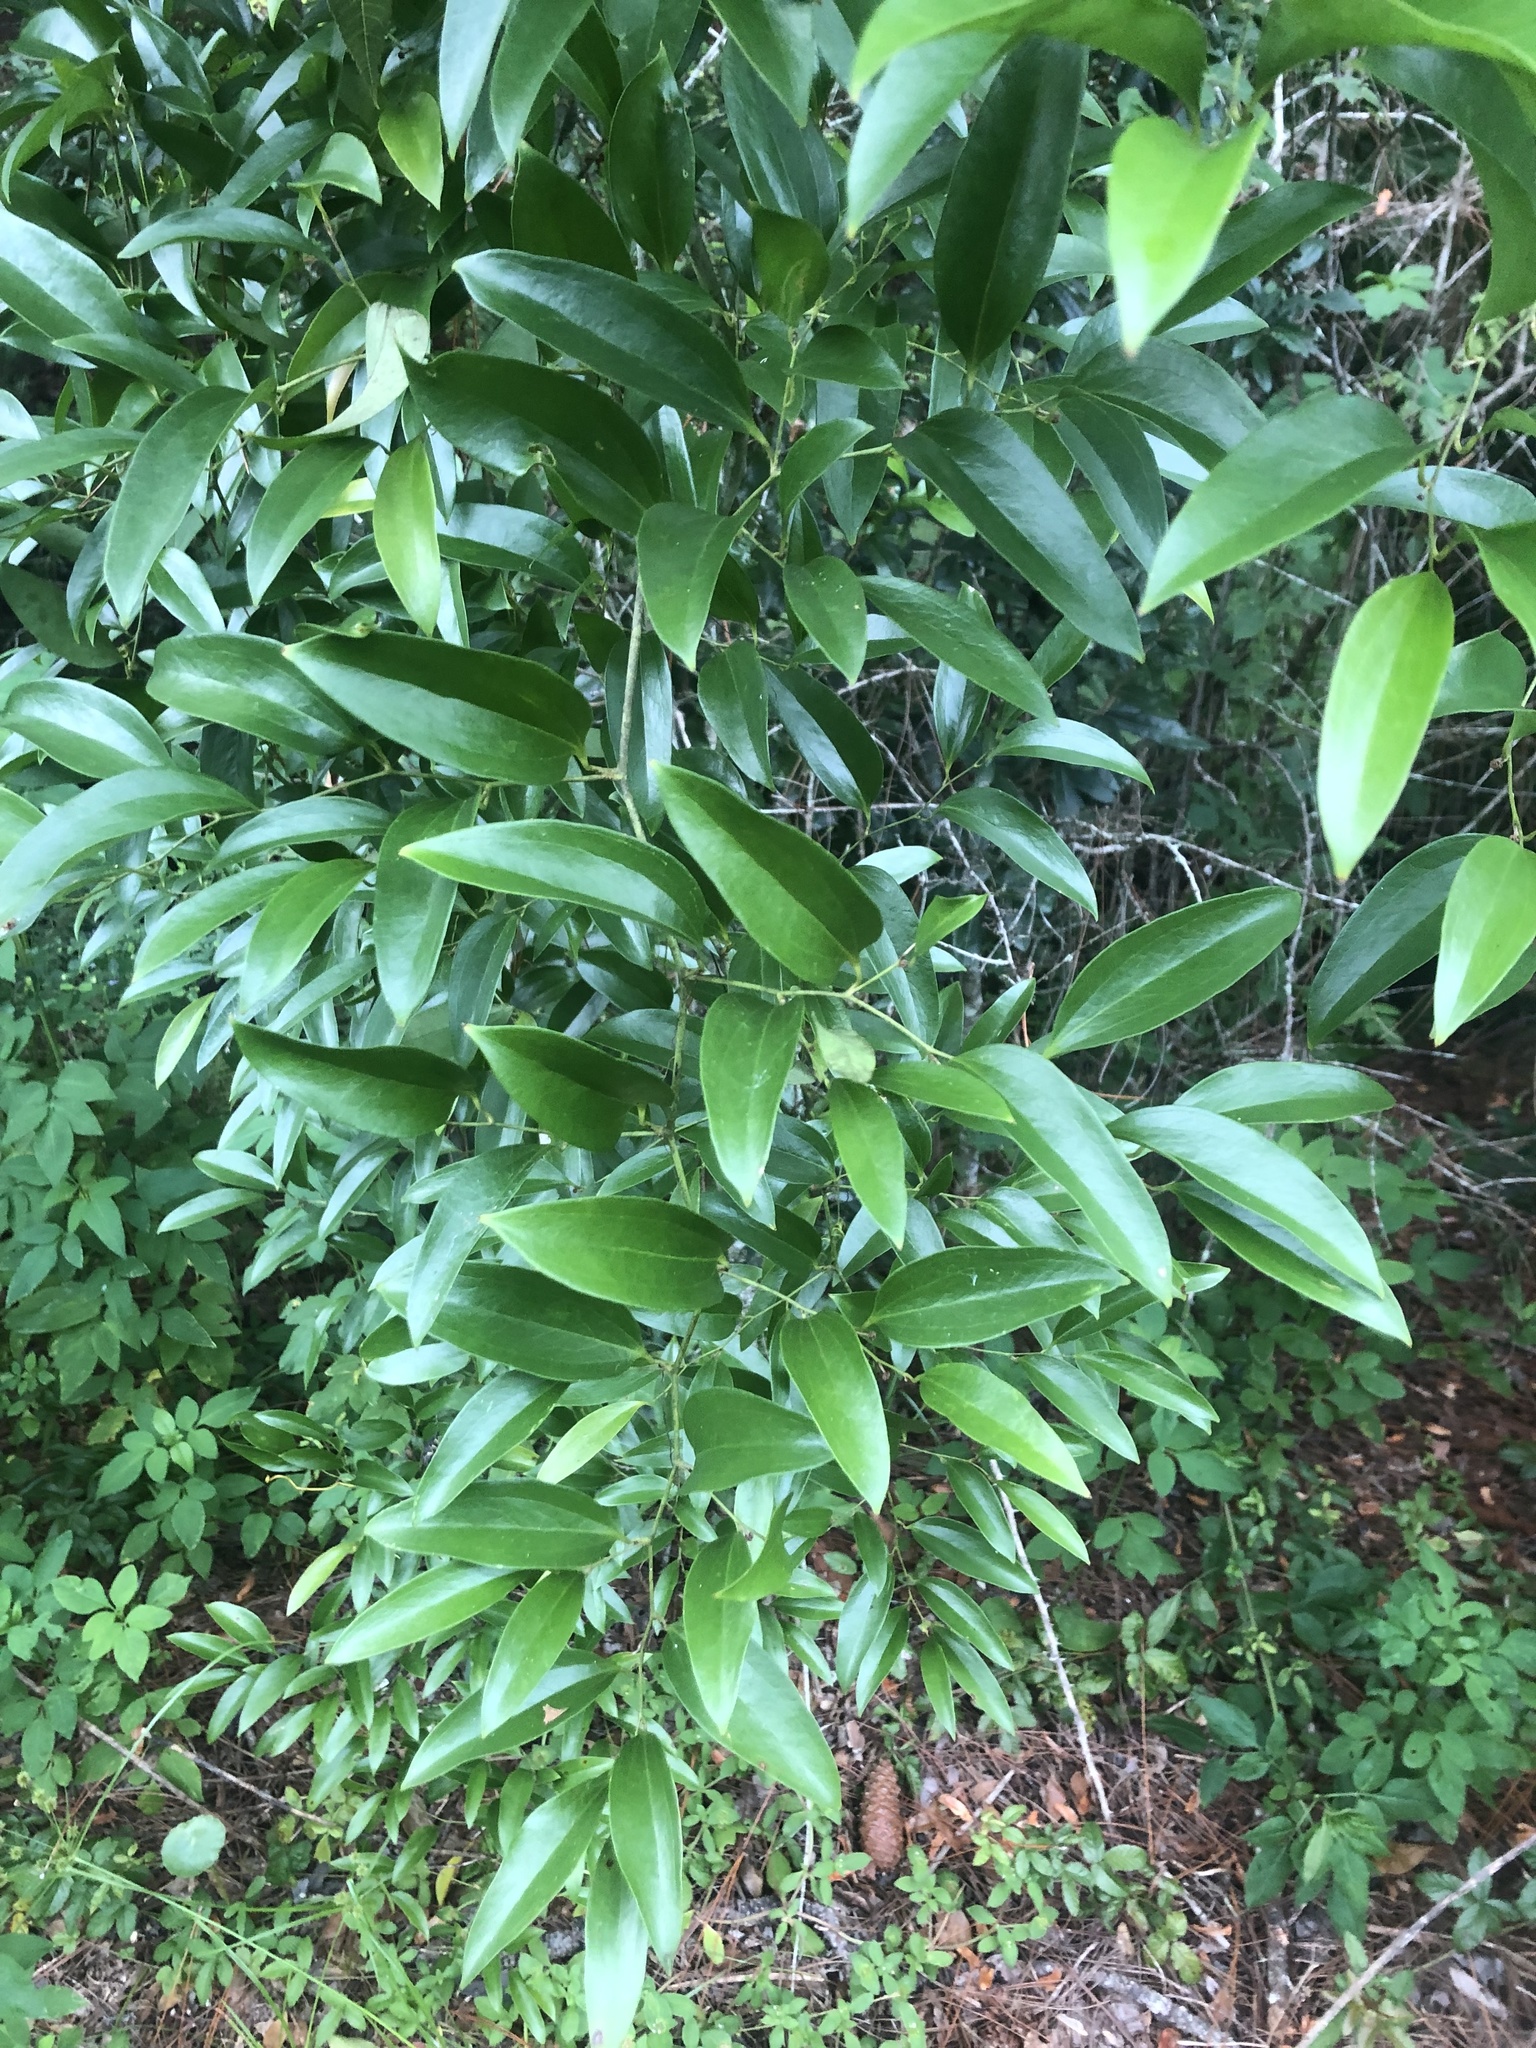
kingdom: Plantae
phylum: Tracheophyta
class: Liliopsida
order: Liliales
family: Smilacaceae
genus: Smilax
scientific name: Smilax maritima
